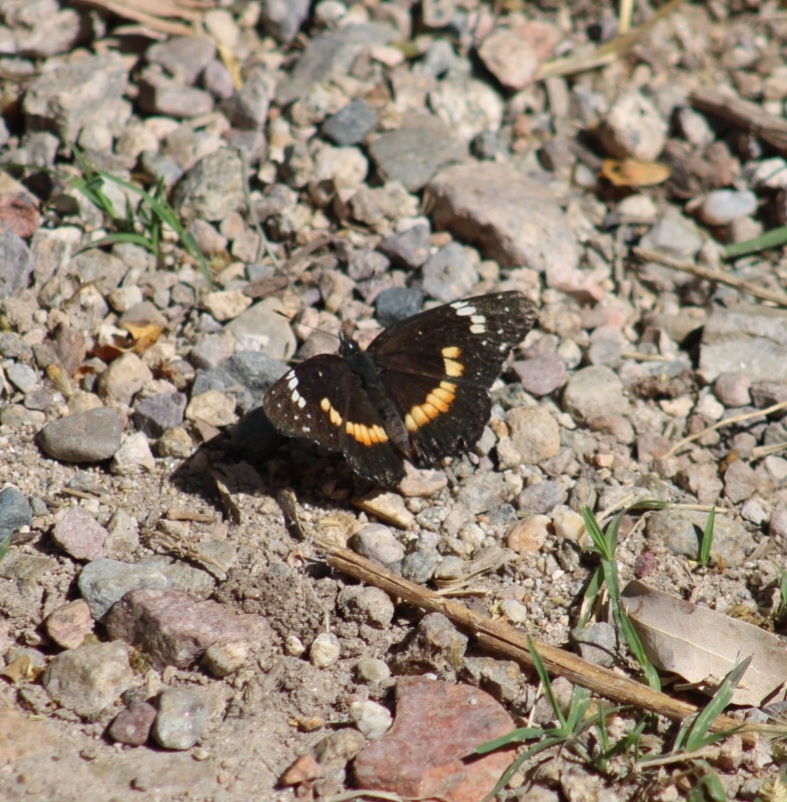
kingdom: Animalia
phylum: Arthropoda
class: Insecta
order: Lepidoptera
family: Nymphalidae
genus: Chlosyne
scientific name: Chlosyne lacinia
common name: Bordered patch
